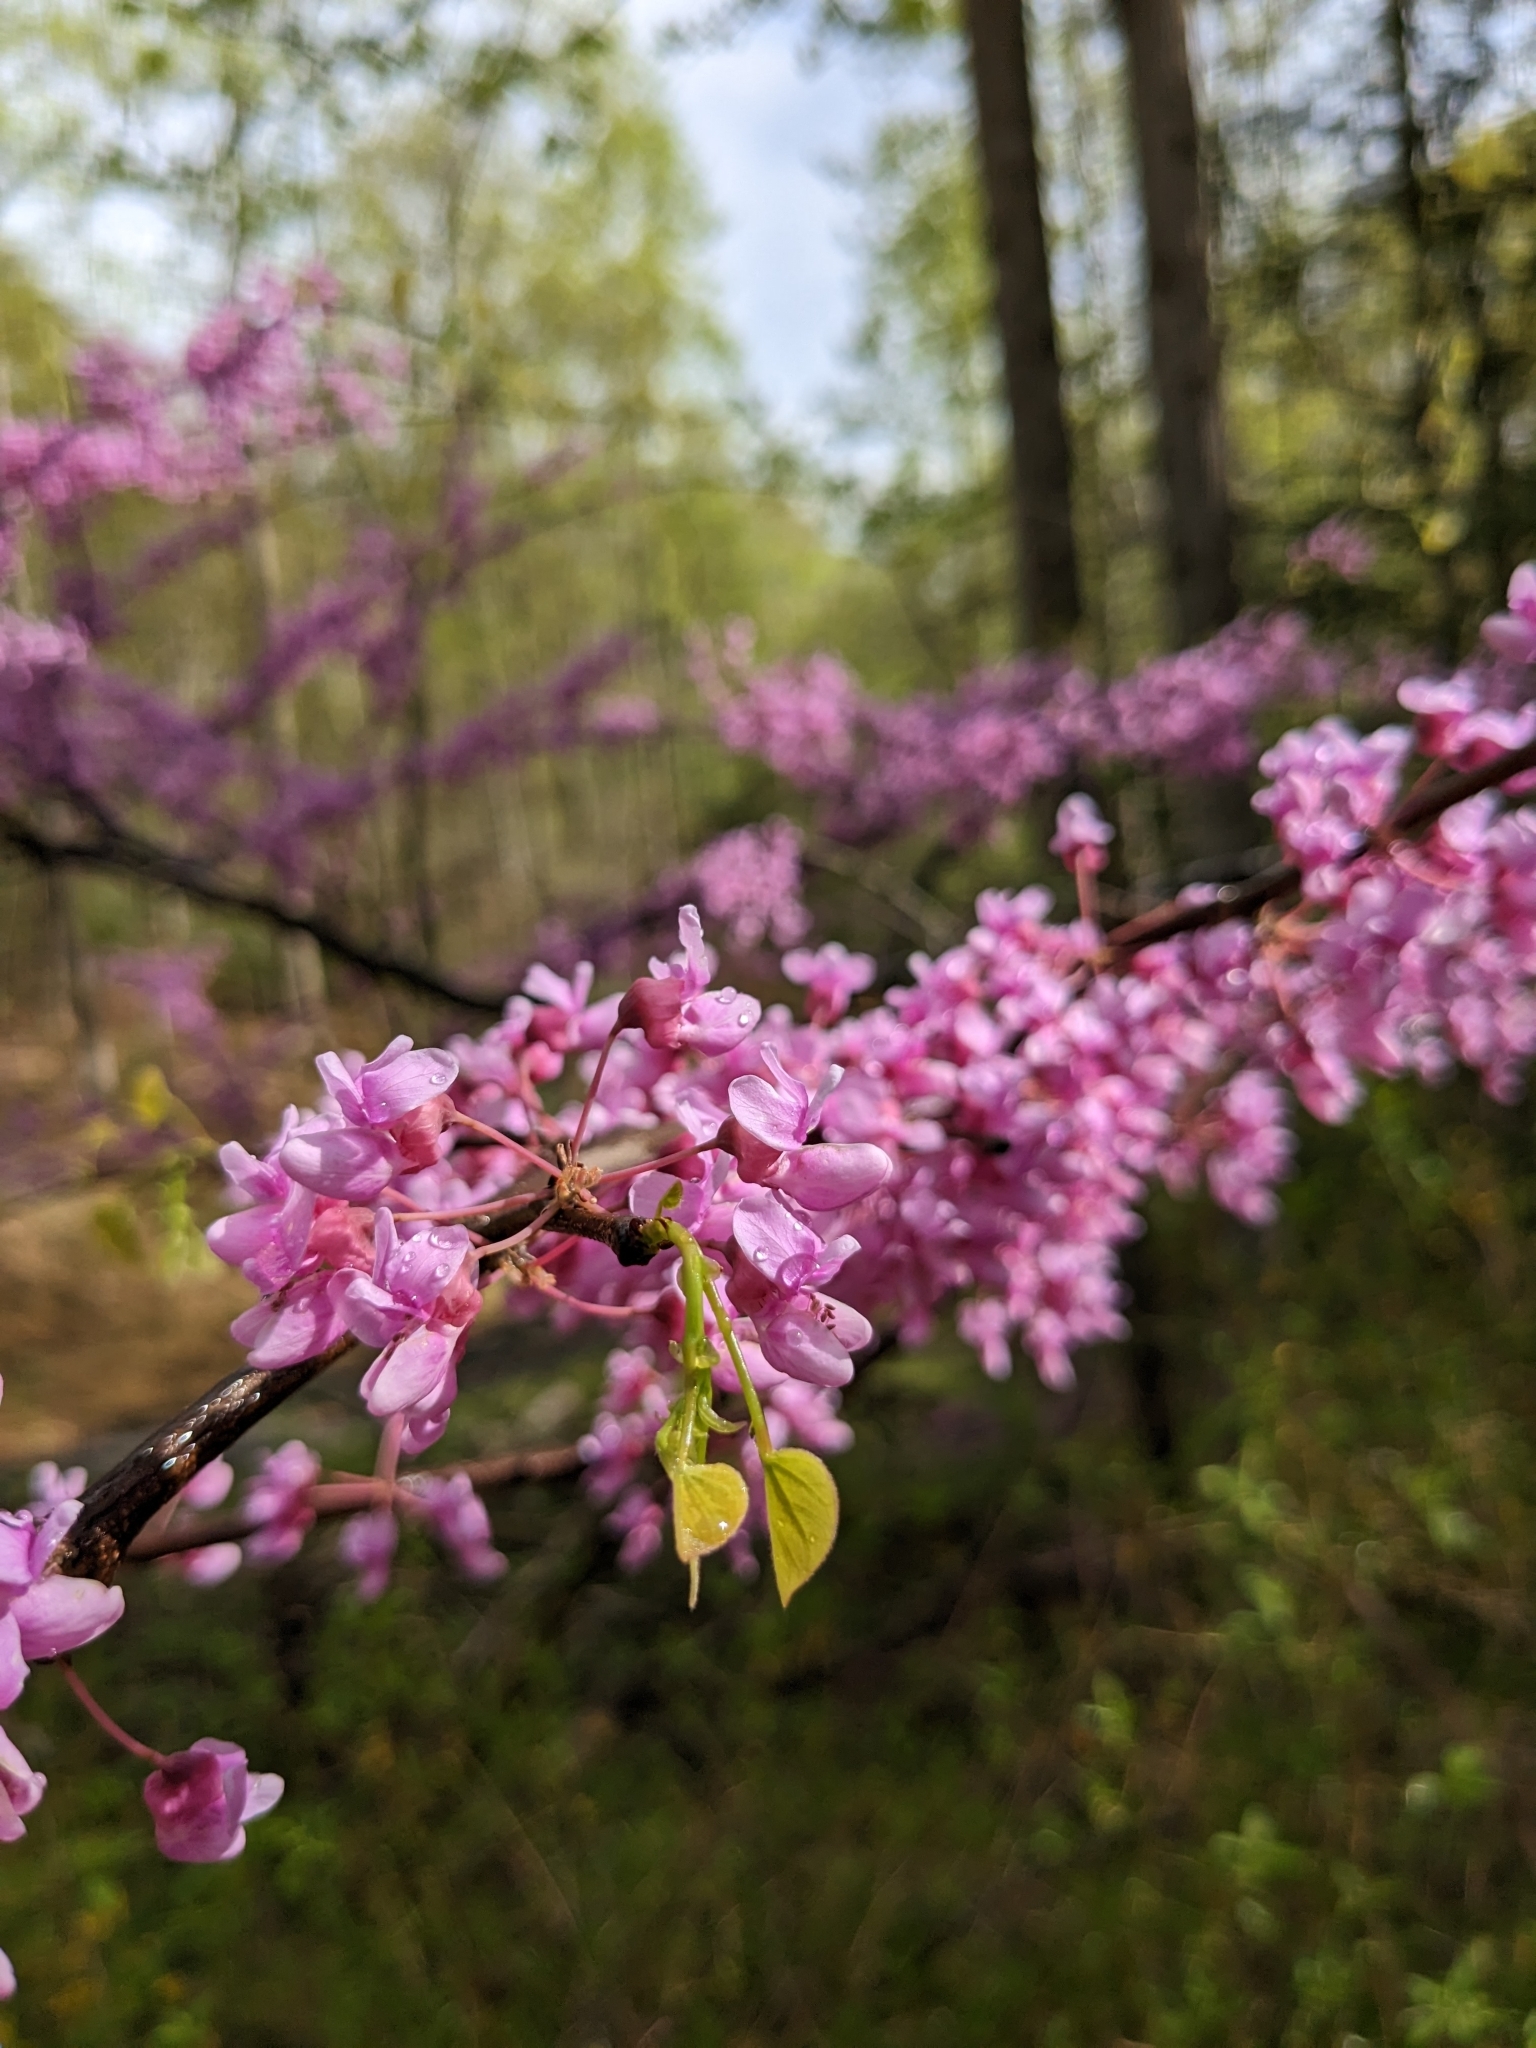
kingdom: Plantae
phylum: Tracheophyta
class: Magnoliopsida
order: Fabales
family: Fabaceae
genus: Cercis
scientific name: Cercis canadensis
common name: Eastern redbud
